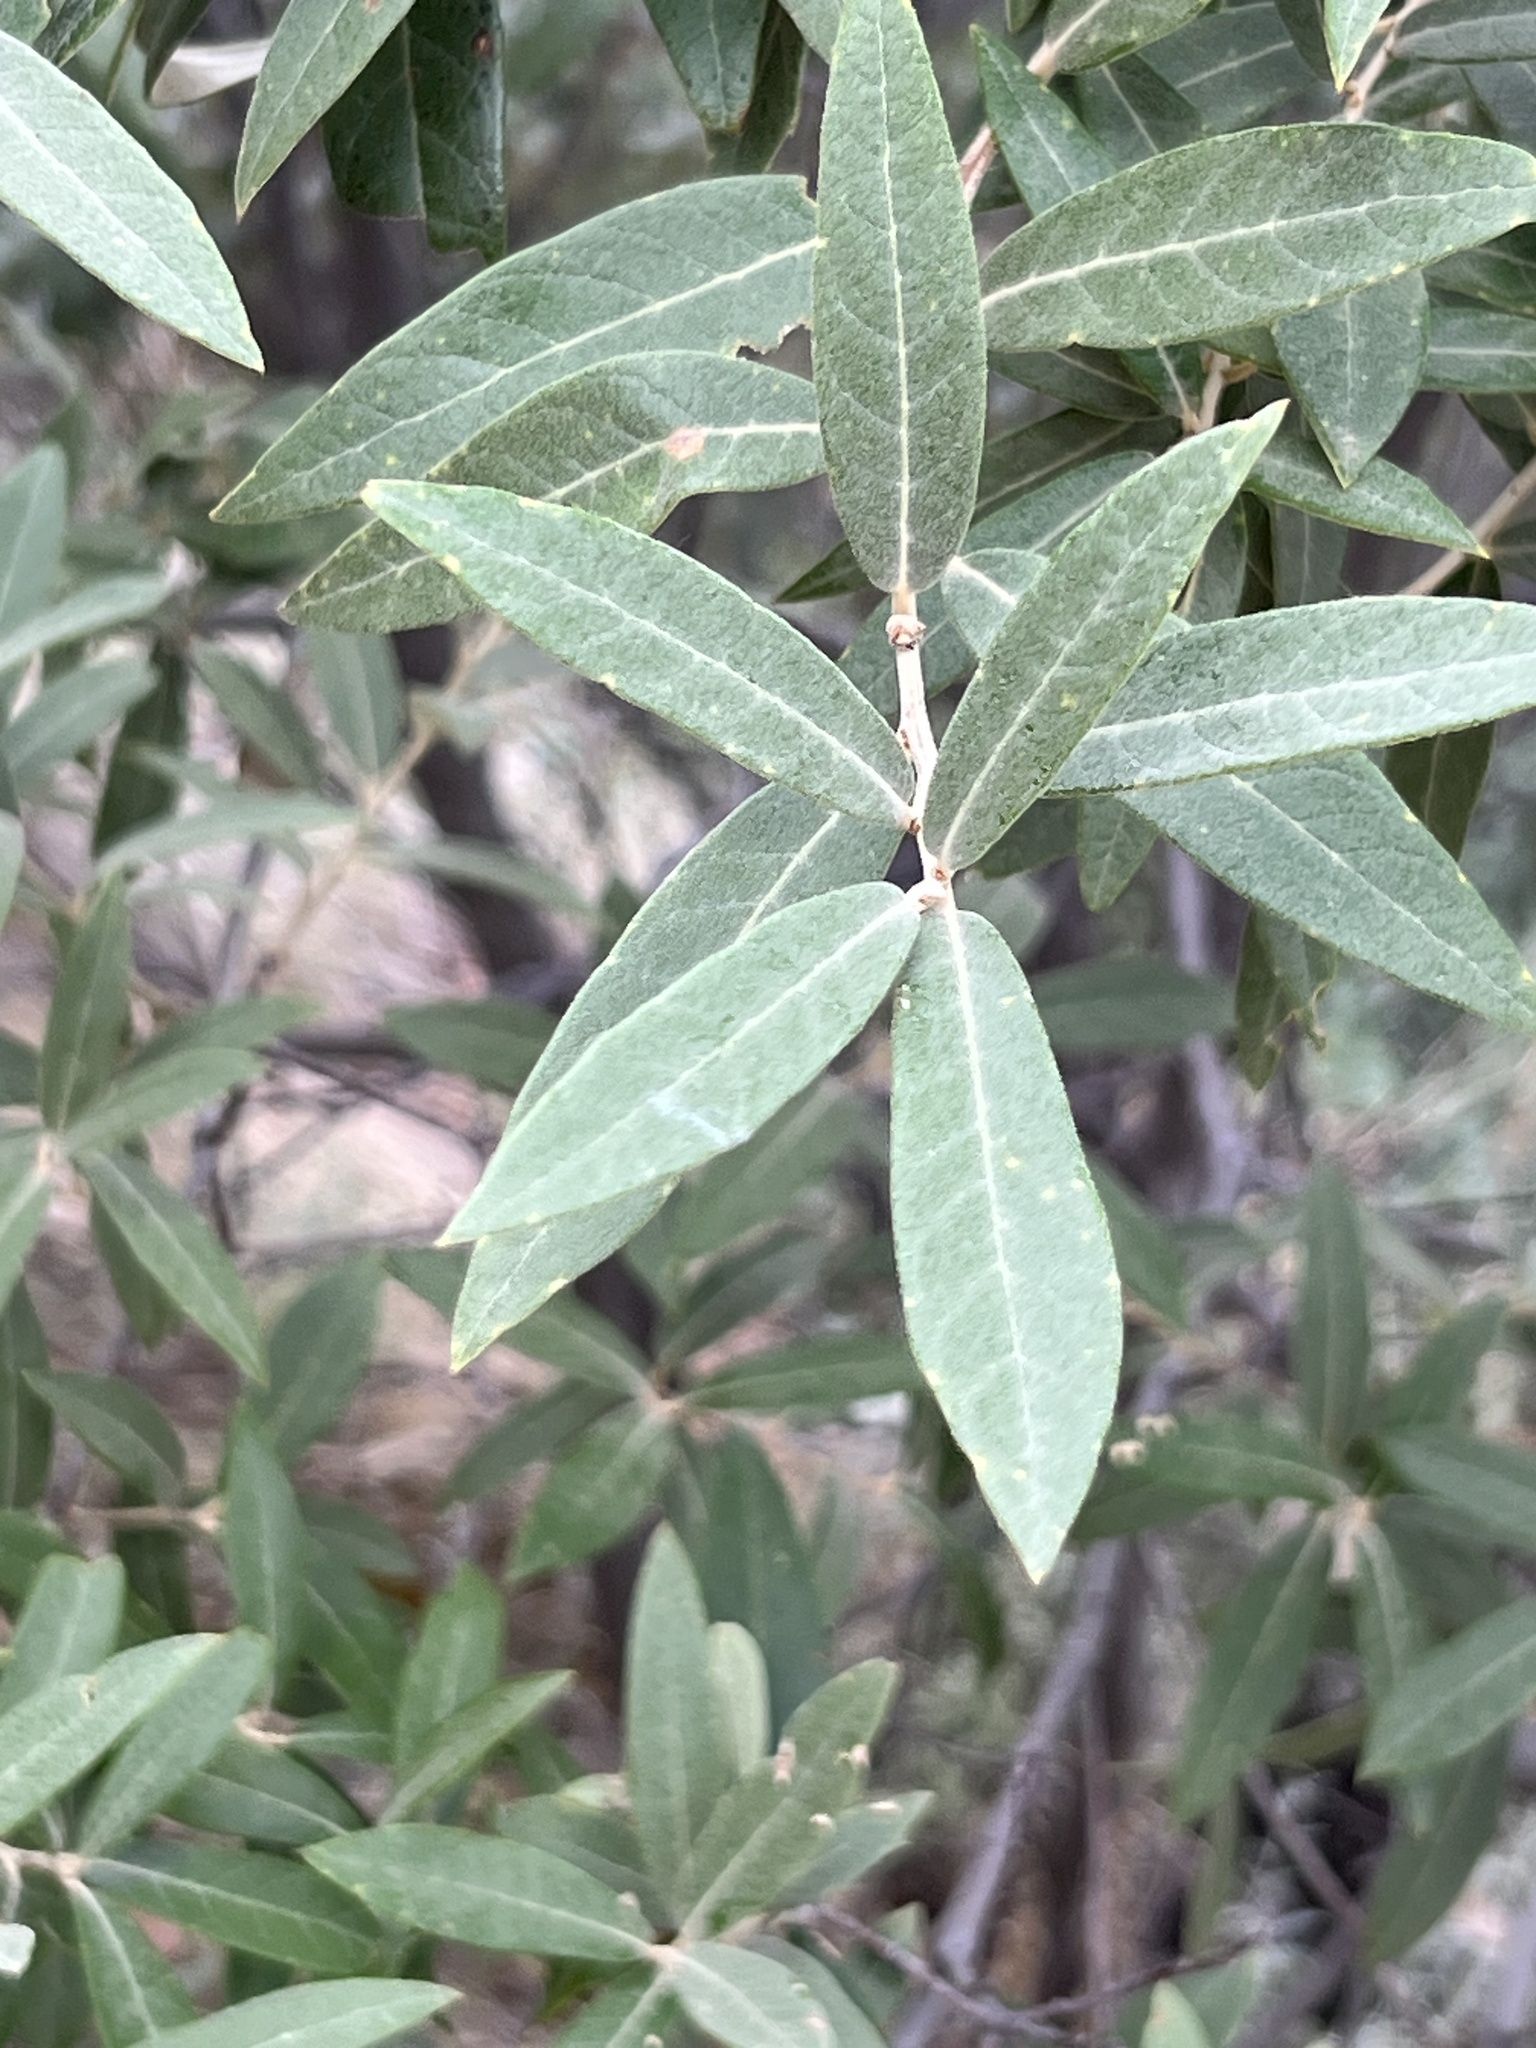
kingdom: Plantae
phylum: Tracheophyta
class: Magnoliopsida
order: Fagales
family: Fagaceae
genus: Quercus
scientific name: Quercus hypoleucoides
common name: Silverleaf oak
